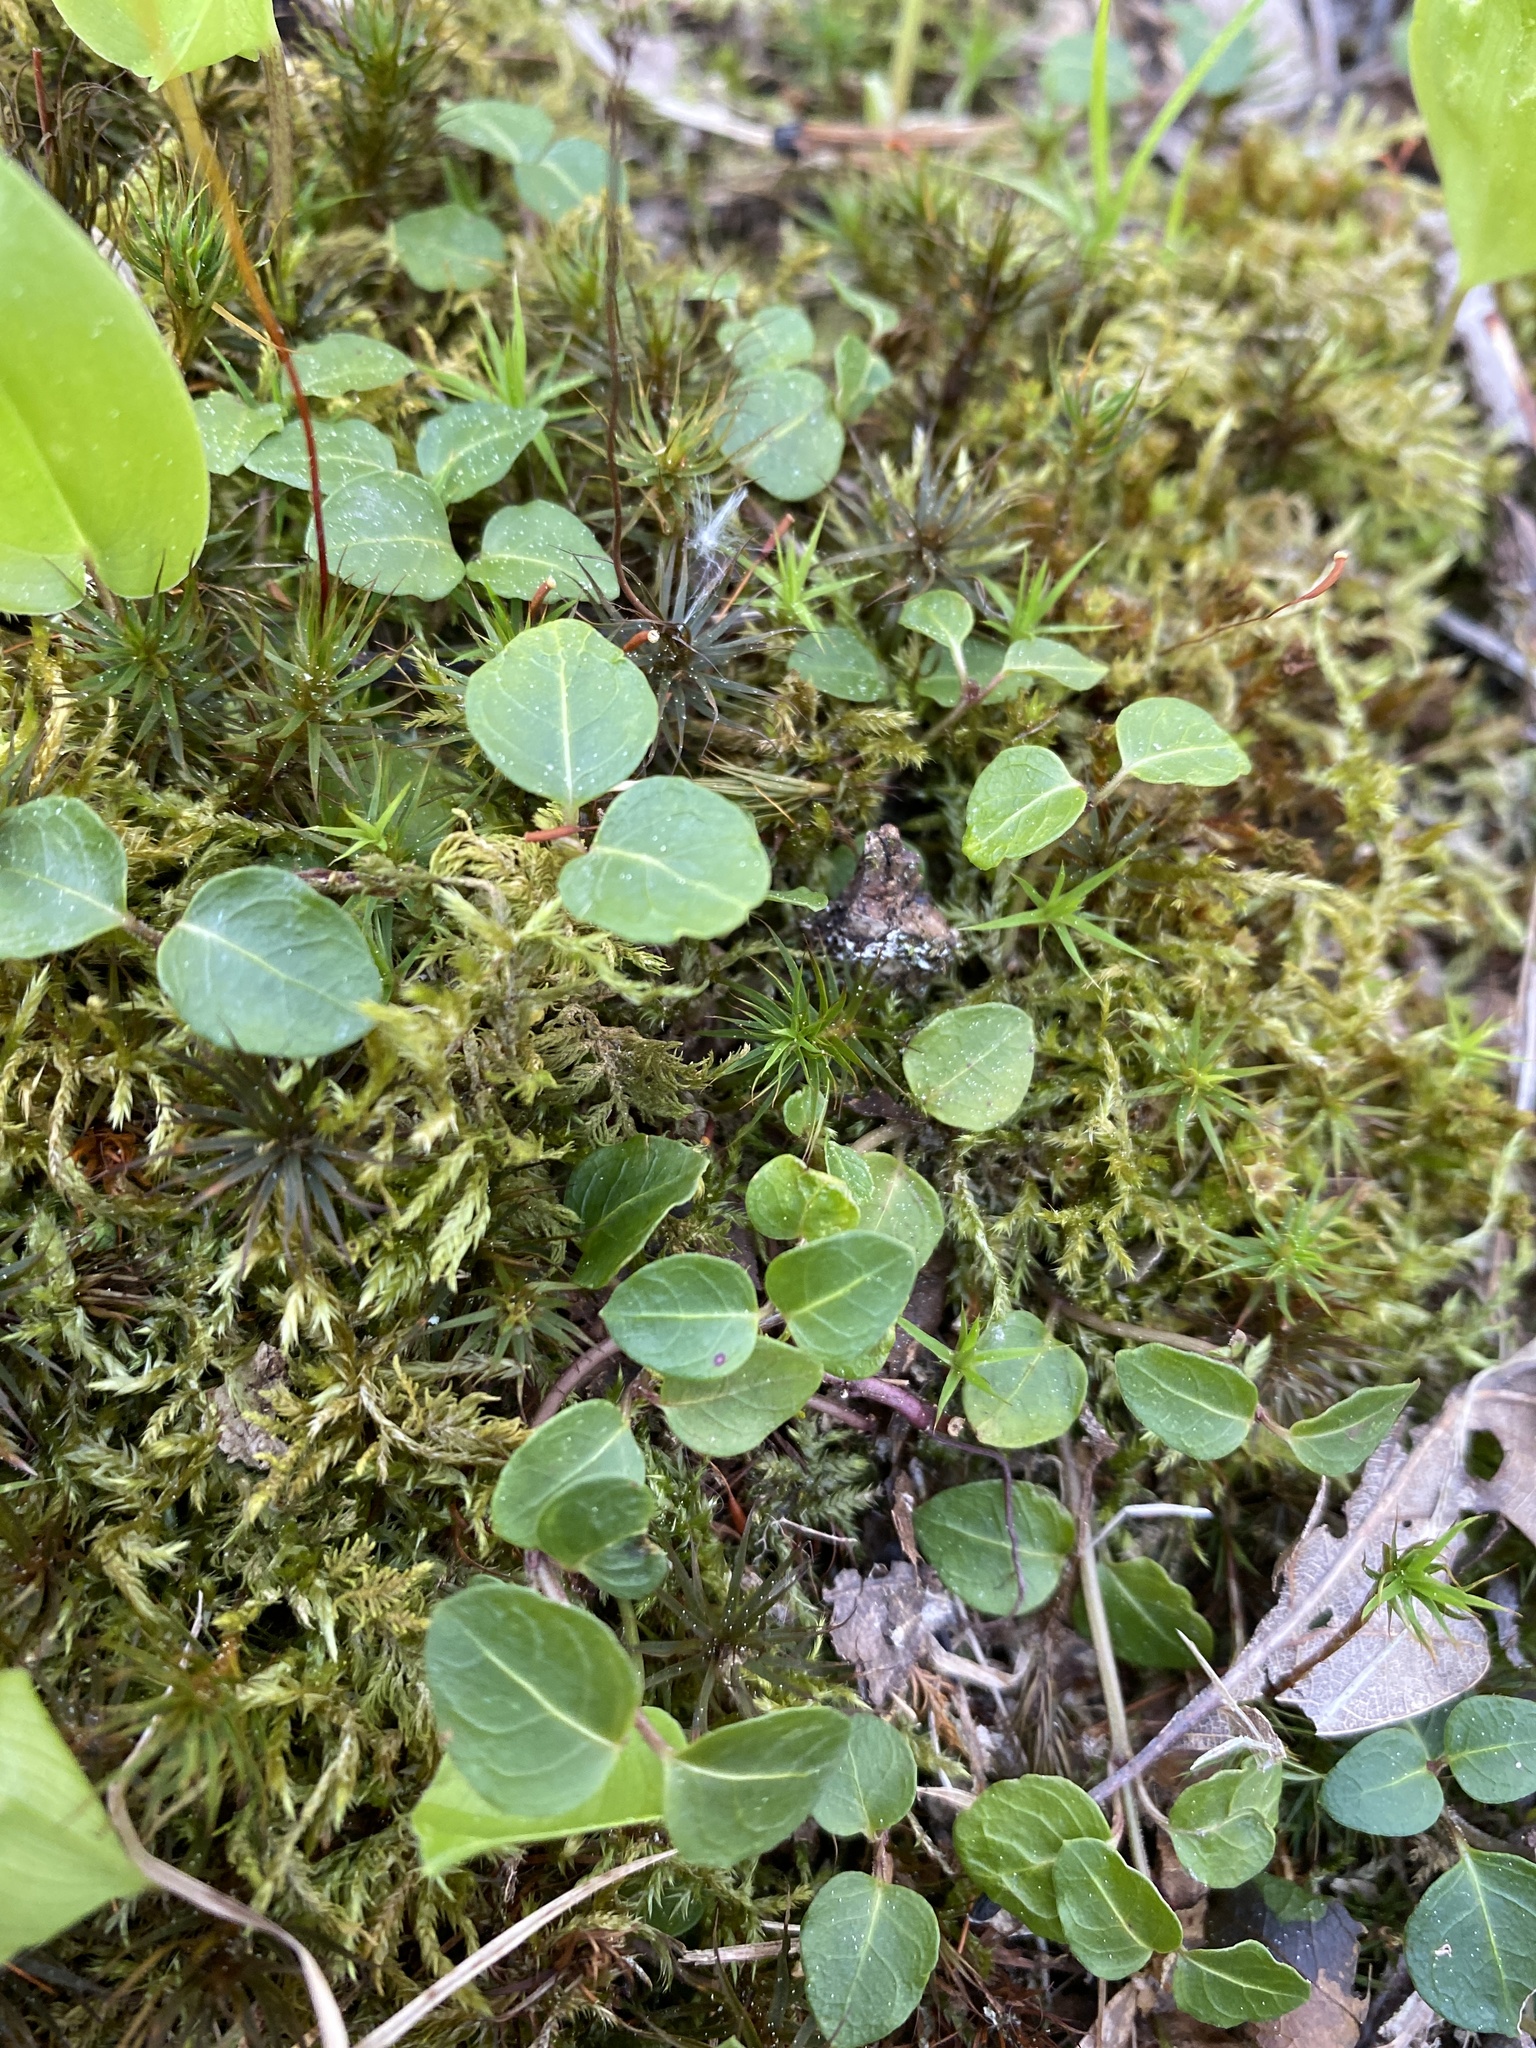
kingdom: Plantae
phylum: Tracheophyta
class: Magnoliopsida
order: Gentianales
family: Rubiaceae
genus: Mitchella
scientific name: Mitchella repens
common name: Partridge-berry
